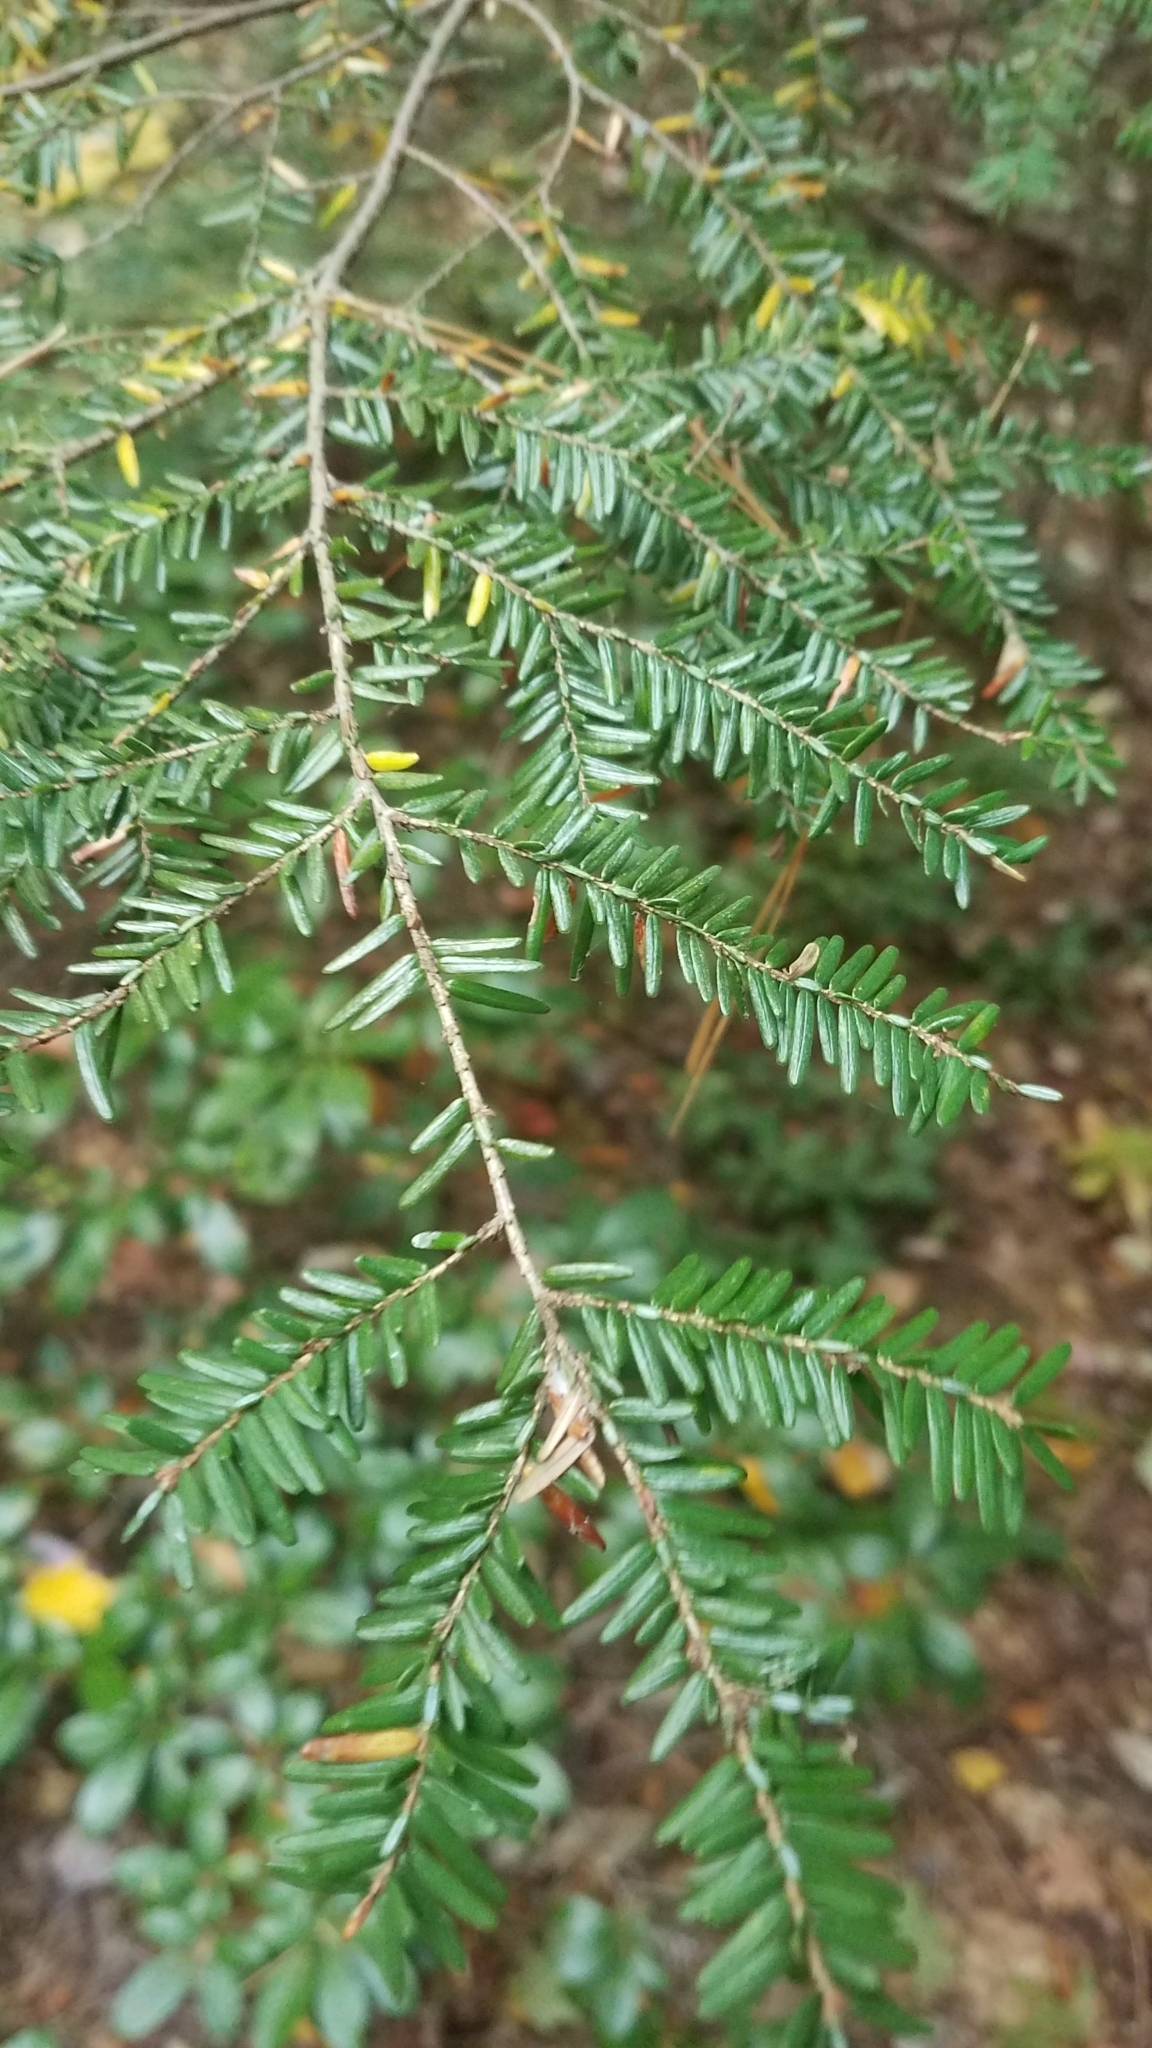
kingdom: Plantae
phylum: Tracheophyta
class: Pinopsida
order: Pinales
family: Pinaceae
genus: Tsuga
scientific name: Tsuga canadensis
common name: Eastern hemlock
